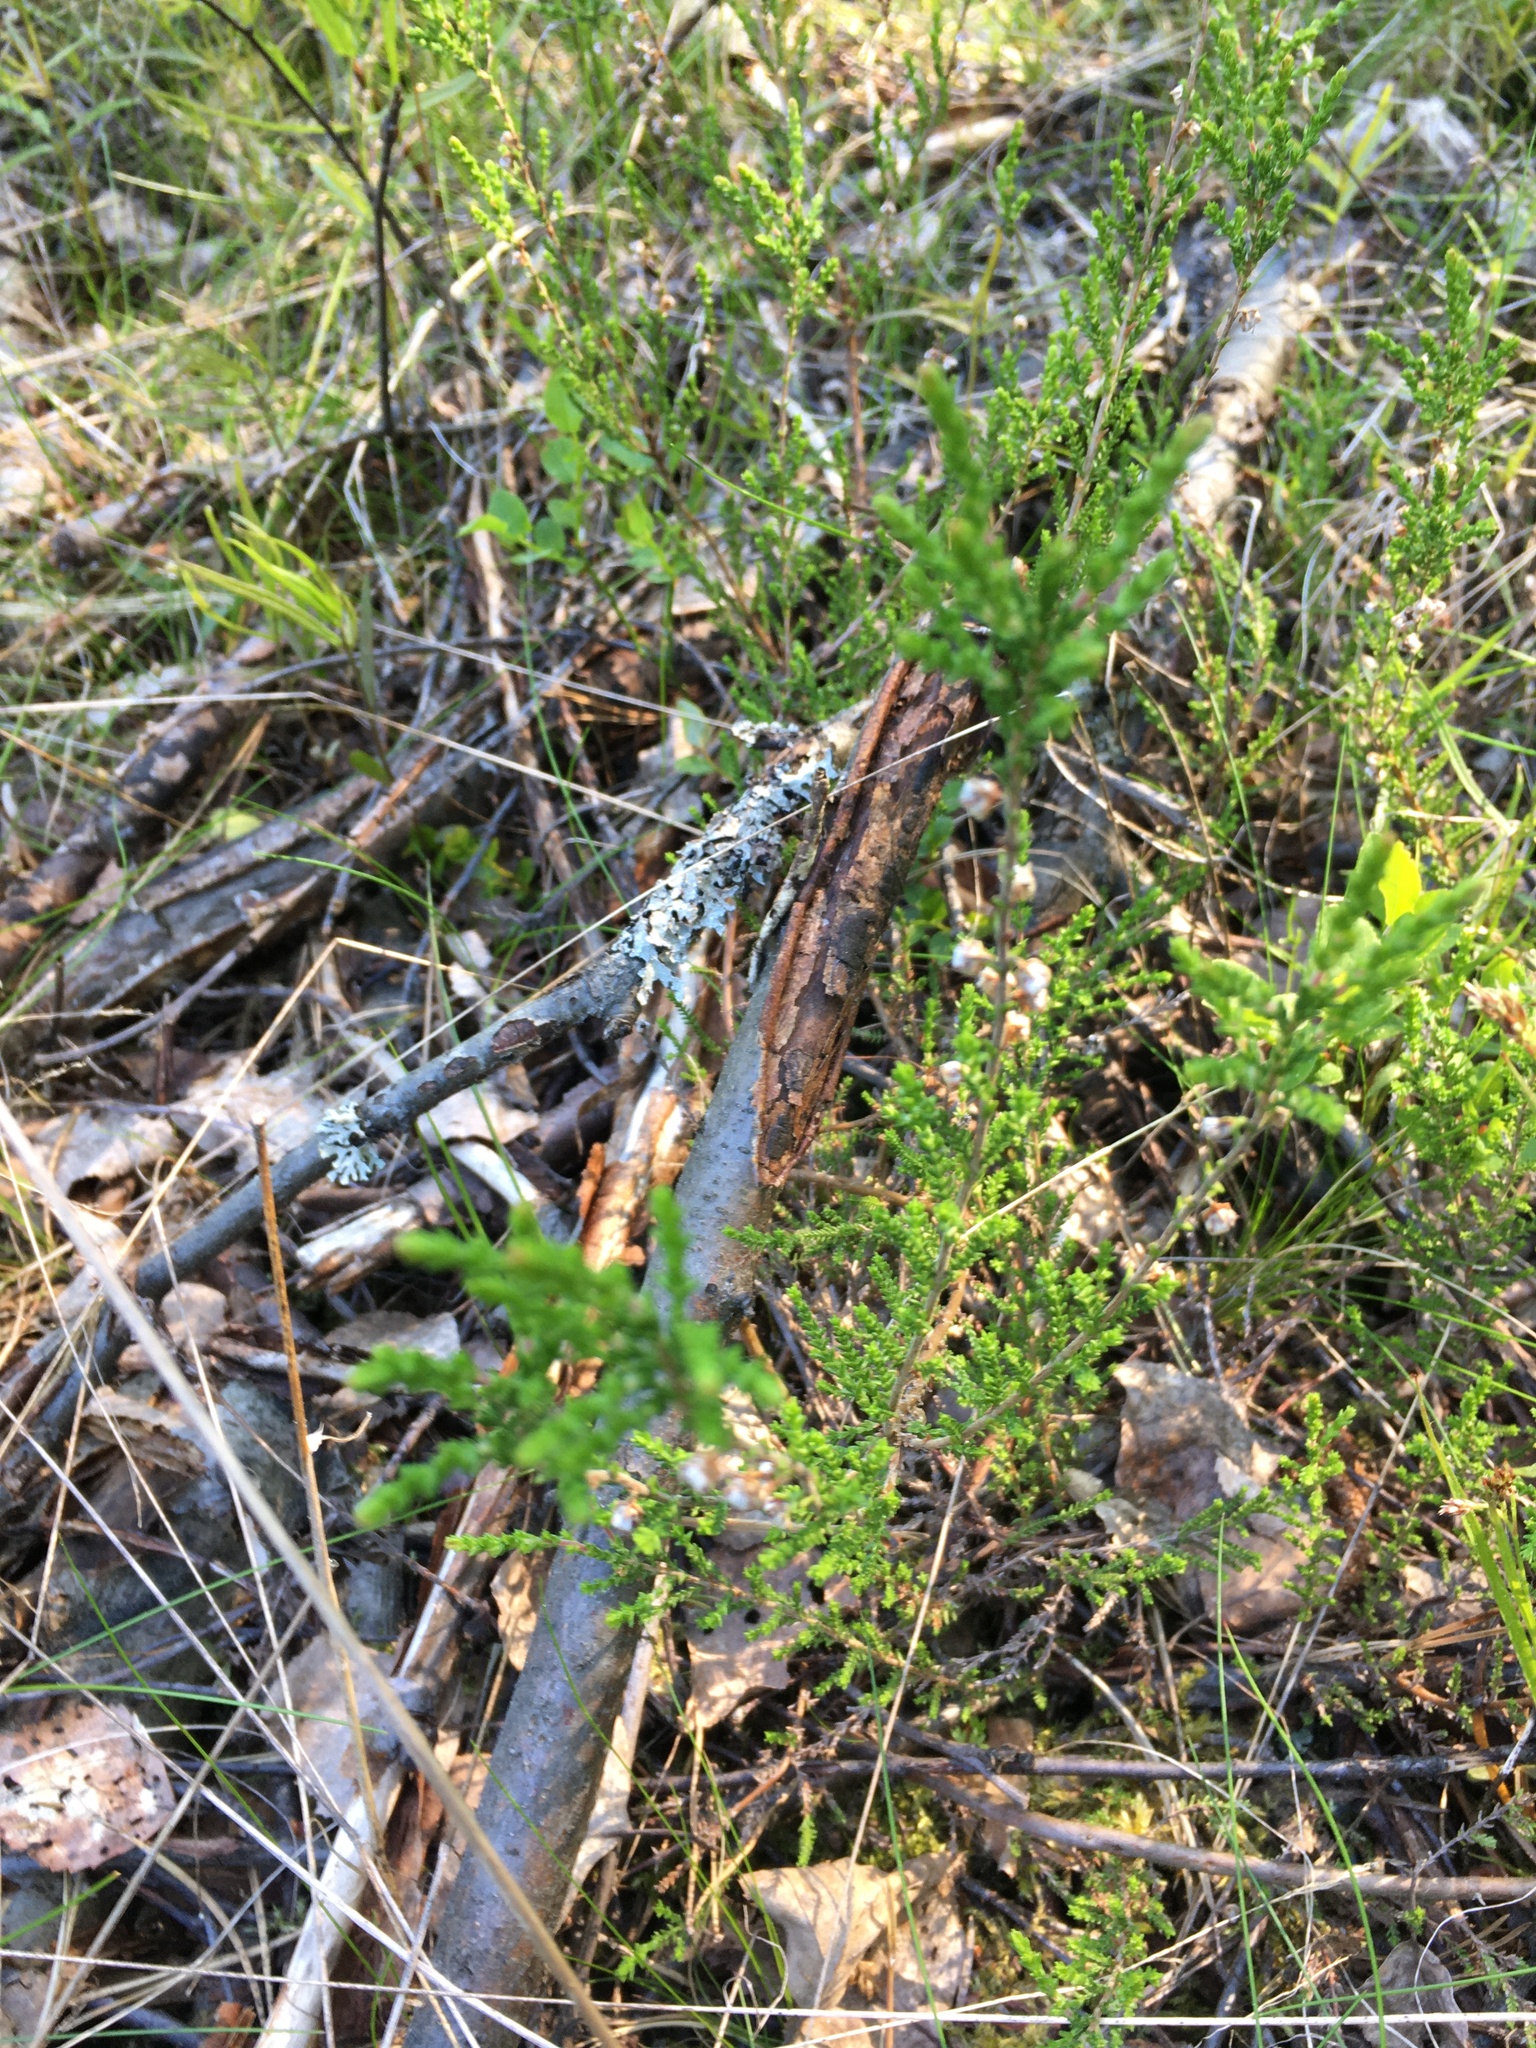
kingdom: Plantae
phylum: Tracheophyta
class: Magnoliopsida
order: Ericales
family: Ericaceae
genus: Calluna
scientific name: Calluna vulgaris
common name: Heather
